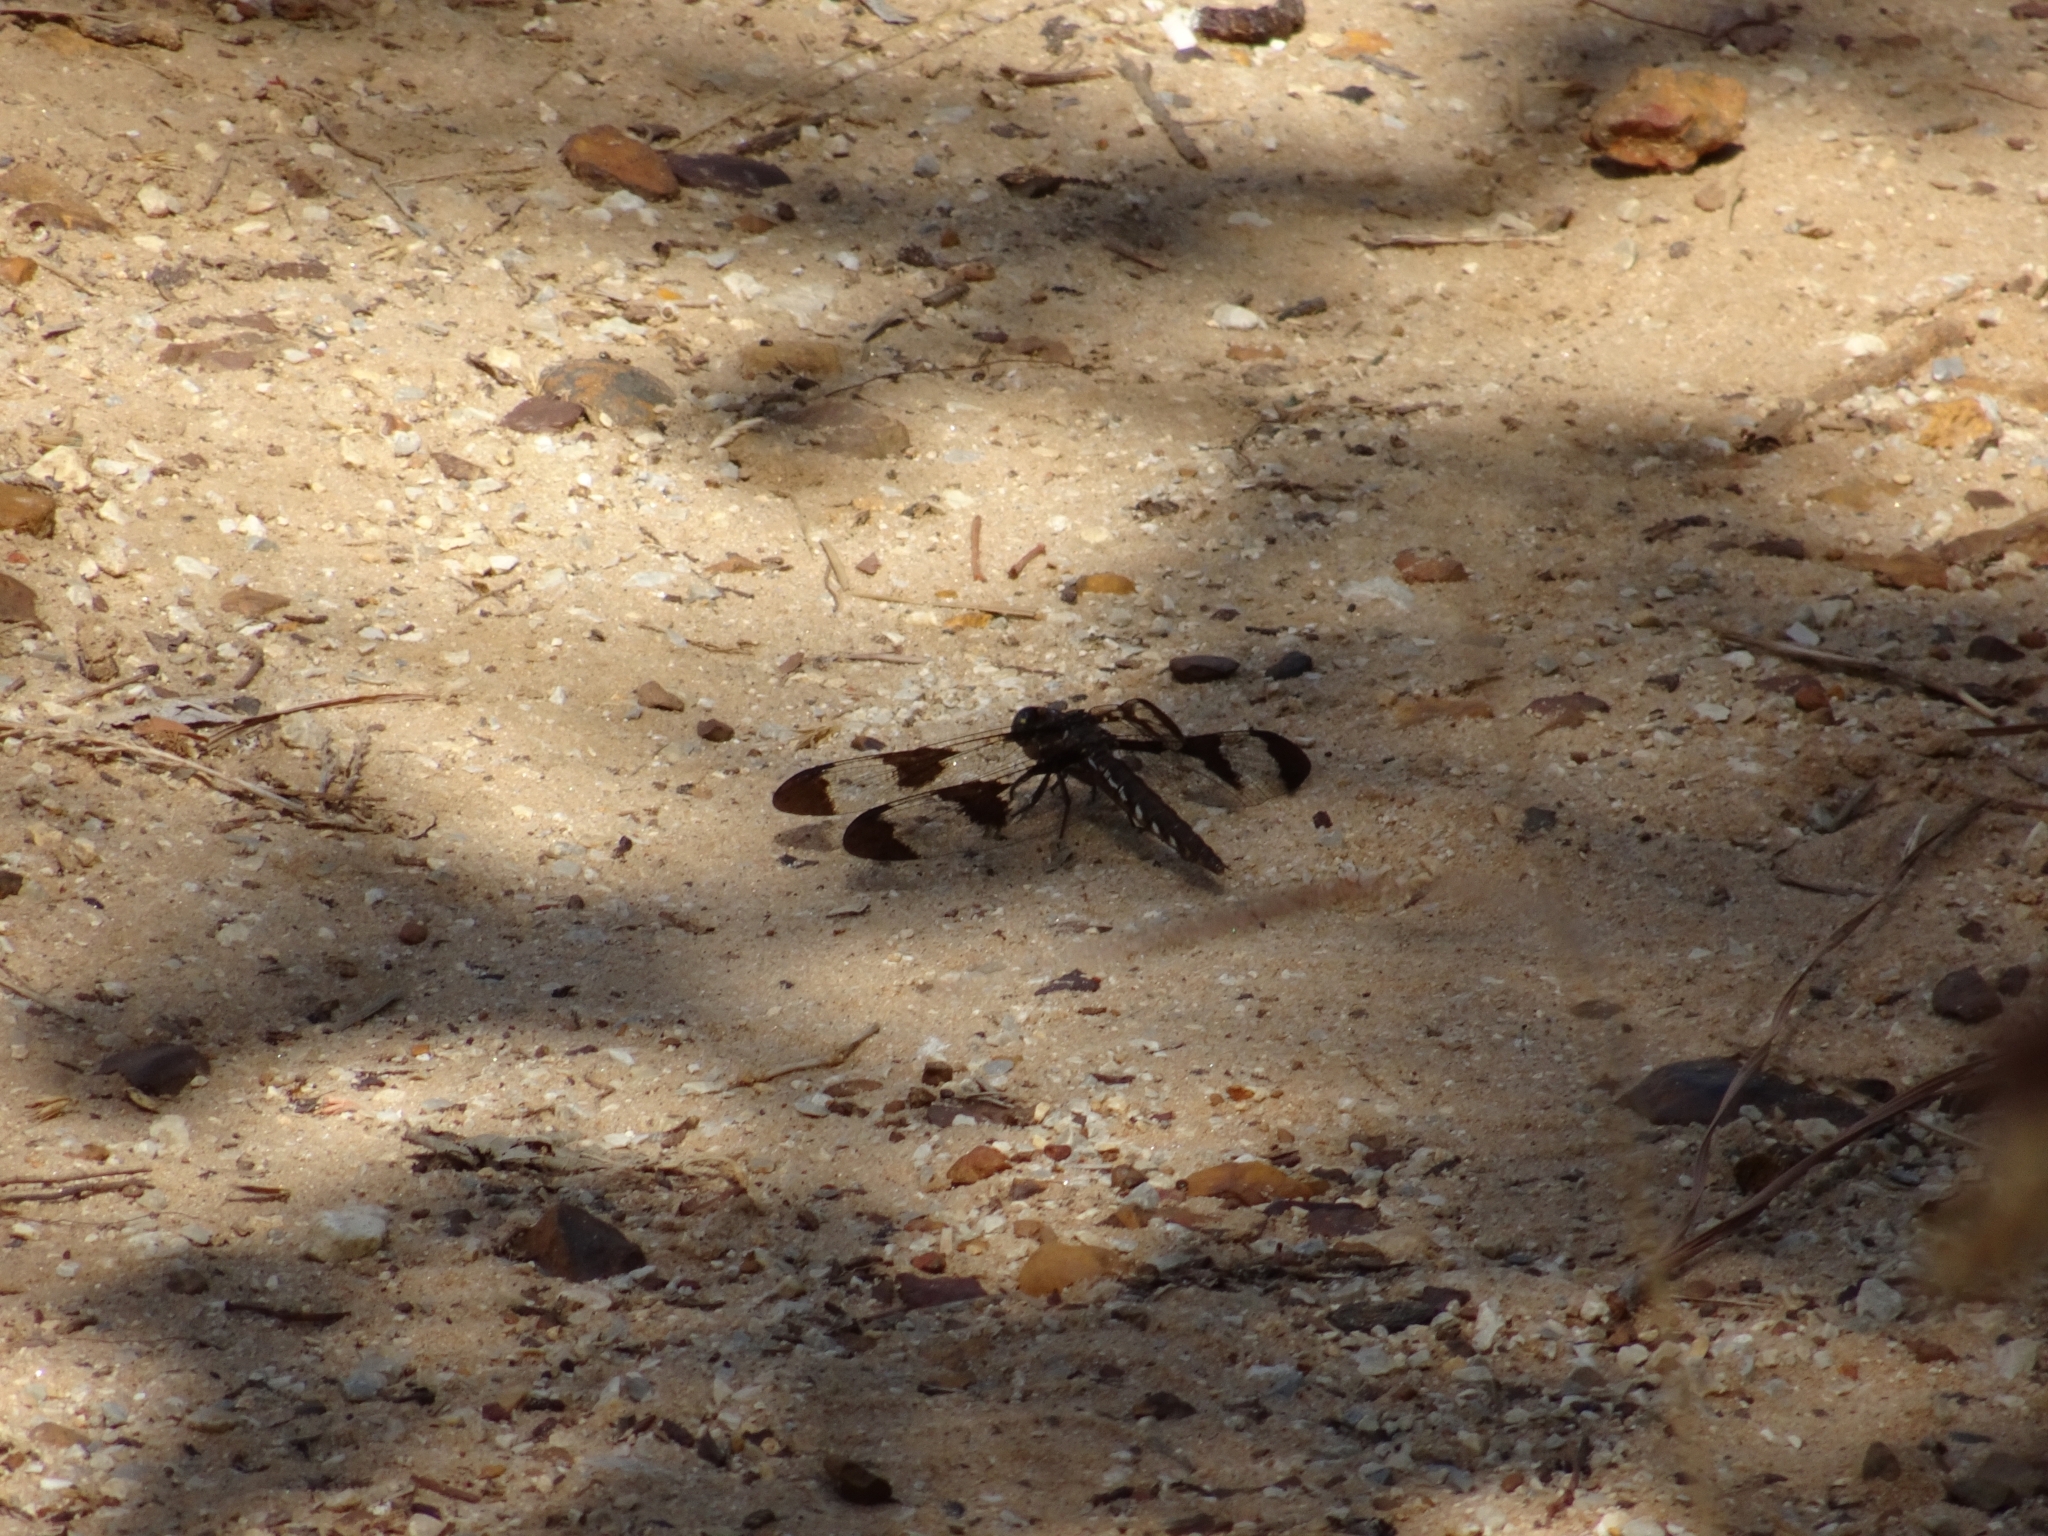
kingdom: Animalia
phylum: Arthropoda
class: Insecta
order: Odonata
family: Libellulidae
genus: Plathemis
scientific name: Plathemis lydia
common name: Common whitetail
